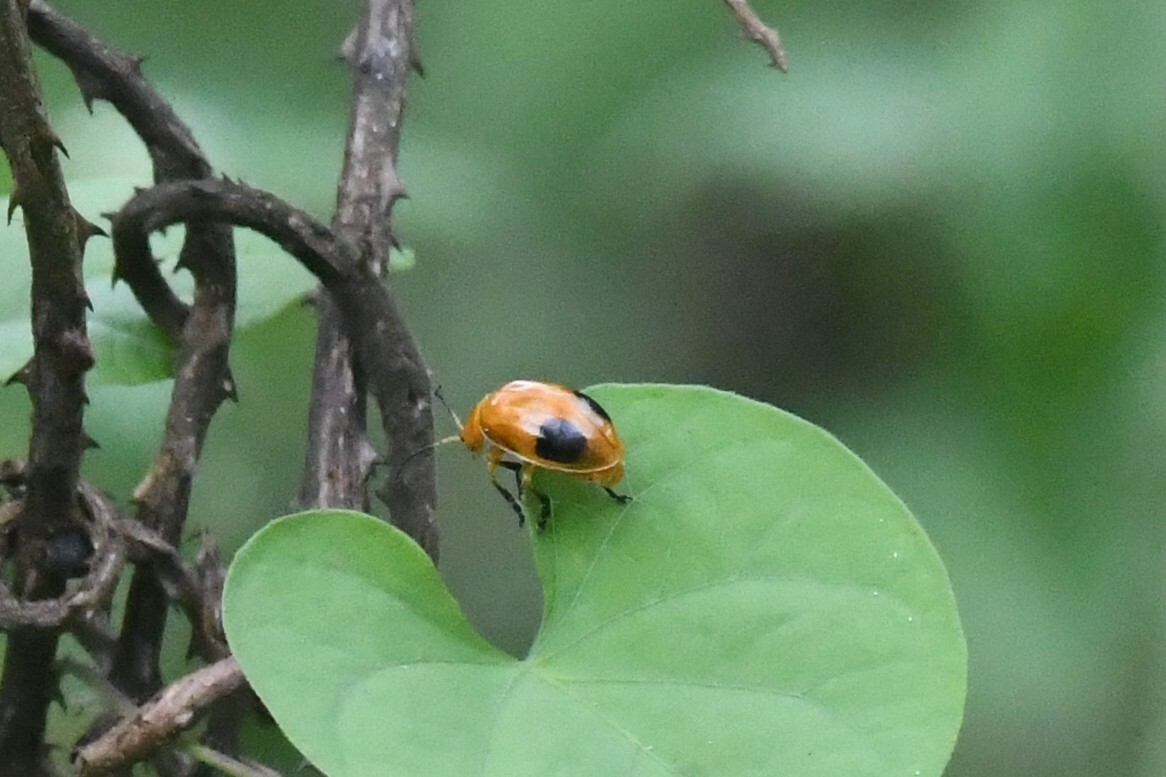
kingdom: Animalia
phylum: Arthropoda
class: Insecta
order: Coleoptera
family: Chrysomelidae
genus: Oides
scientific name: Oides palleata
